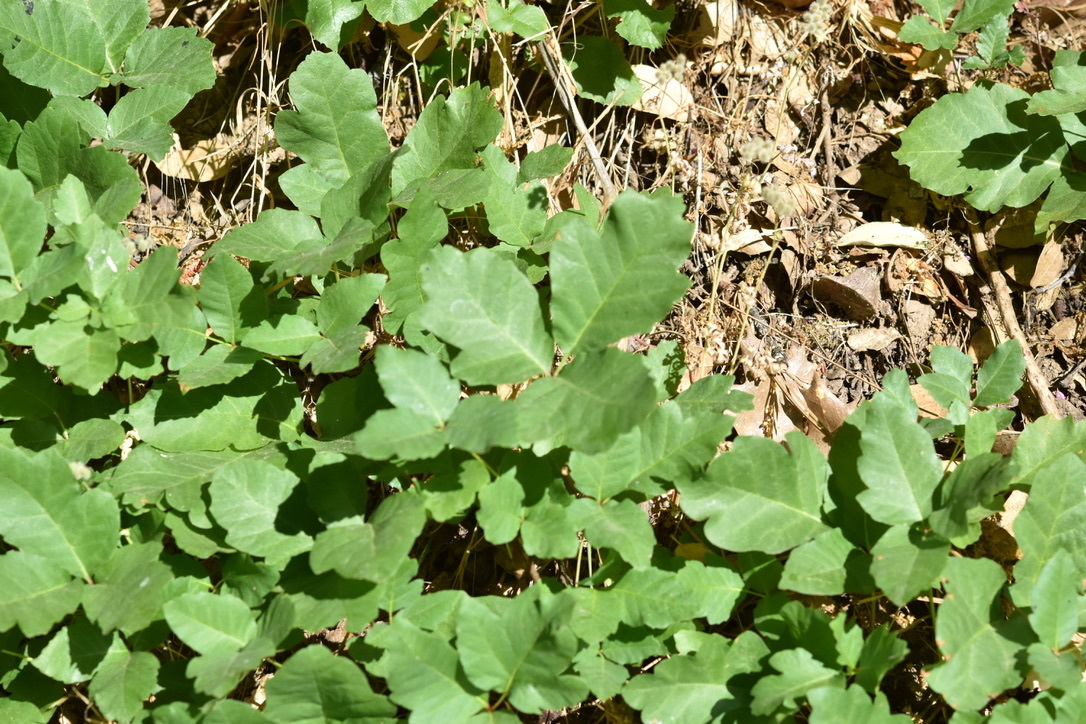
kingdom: Plantae
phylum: Tracheophyta
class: Magnoliopsida
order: Sapindales
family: Anacardiaceae
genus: Toxicodendron
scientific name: Toxicodendron diversilobum
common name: Pacific poison-oak
